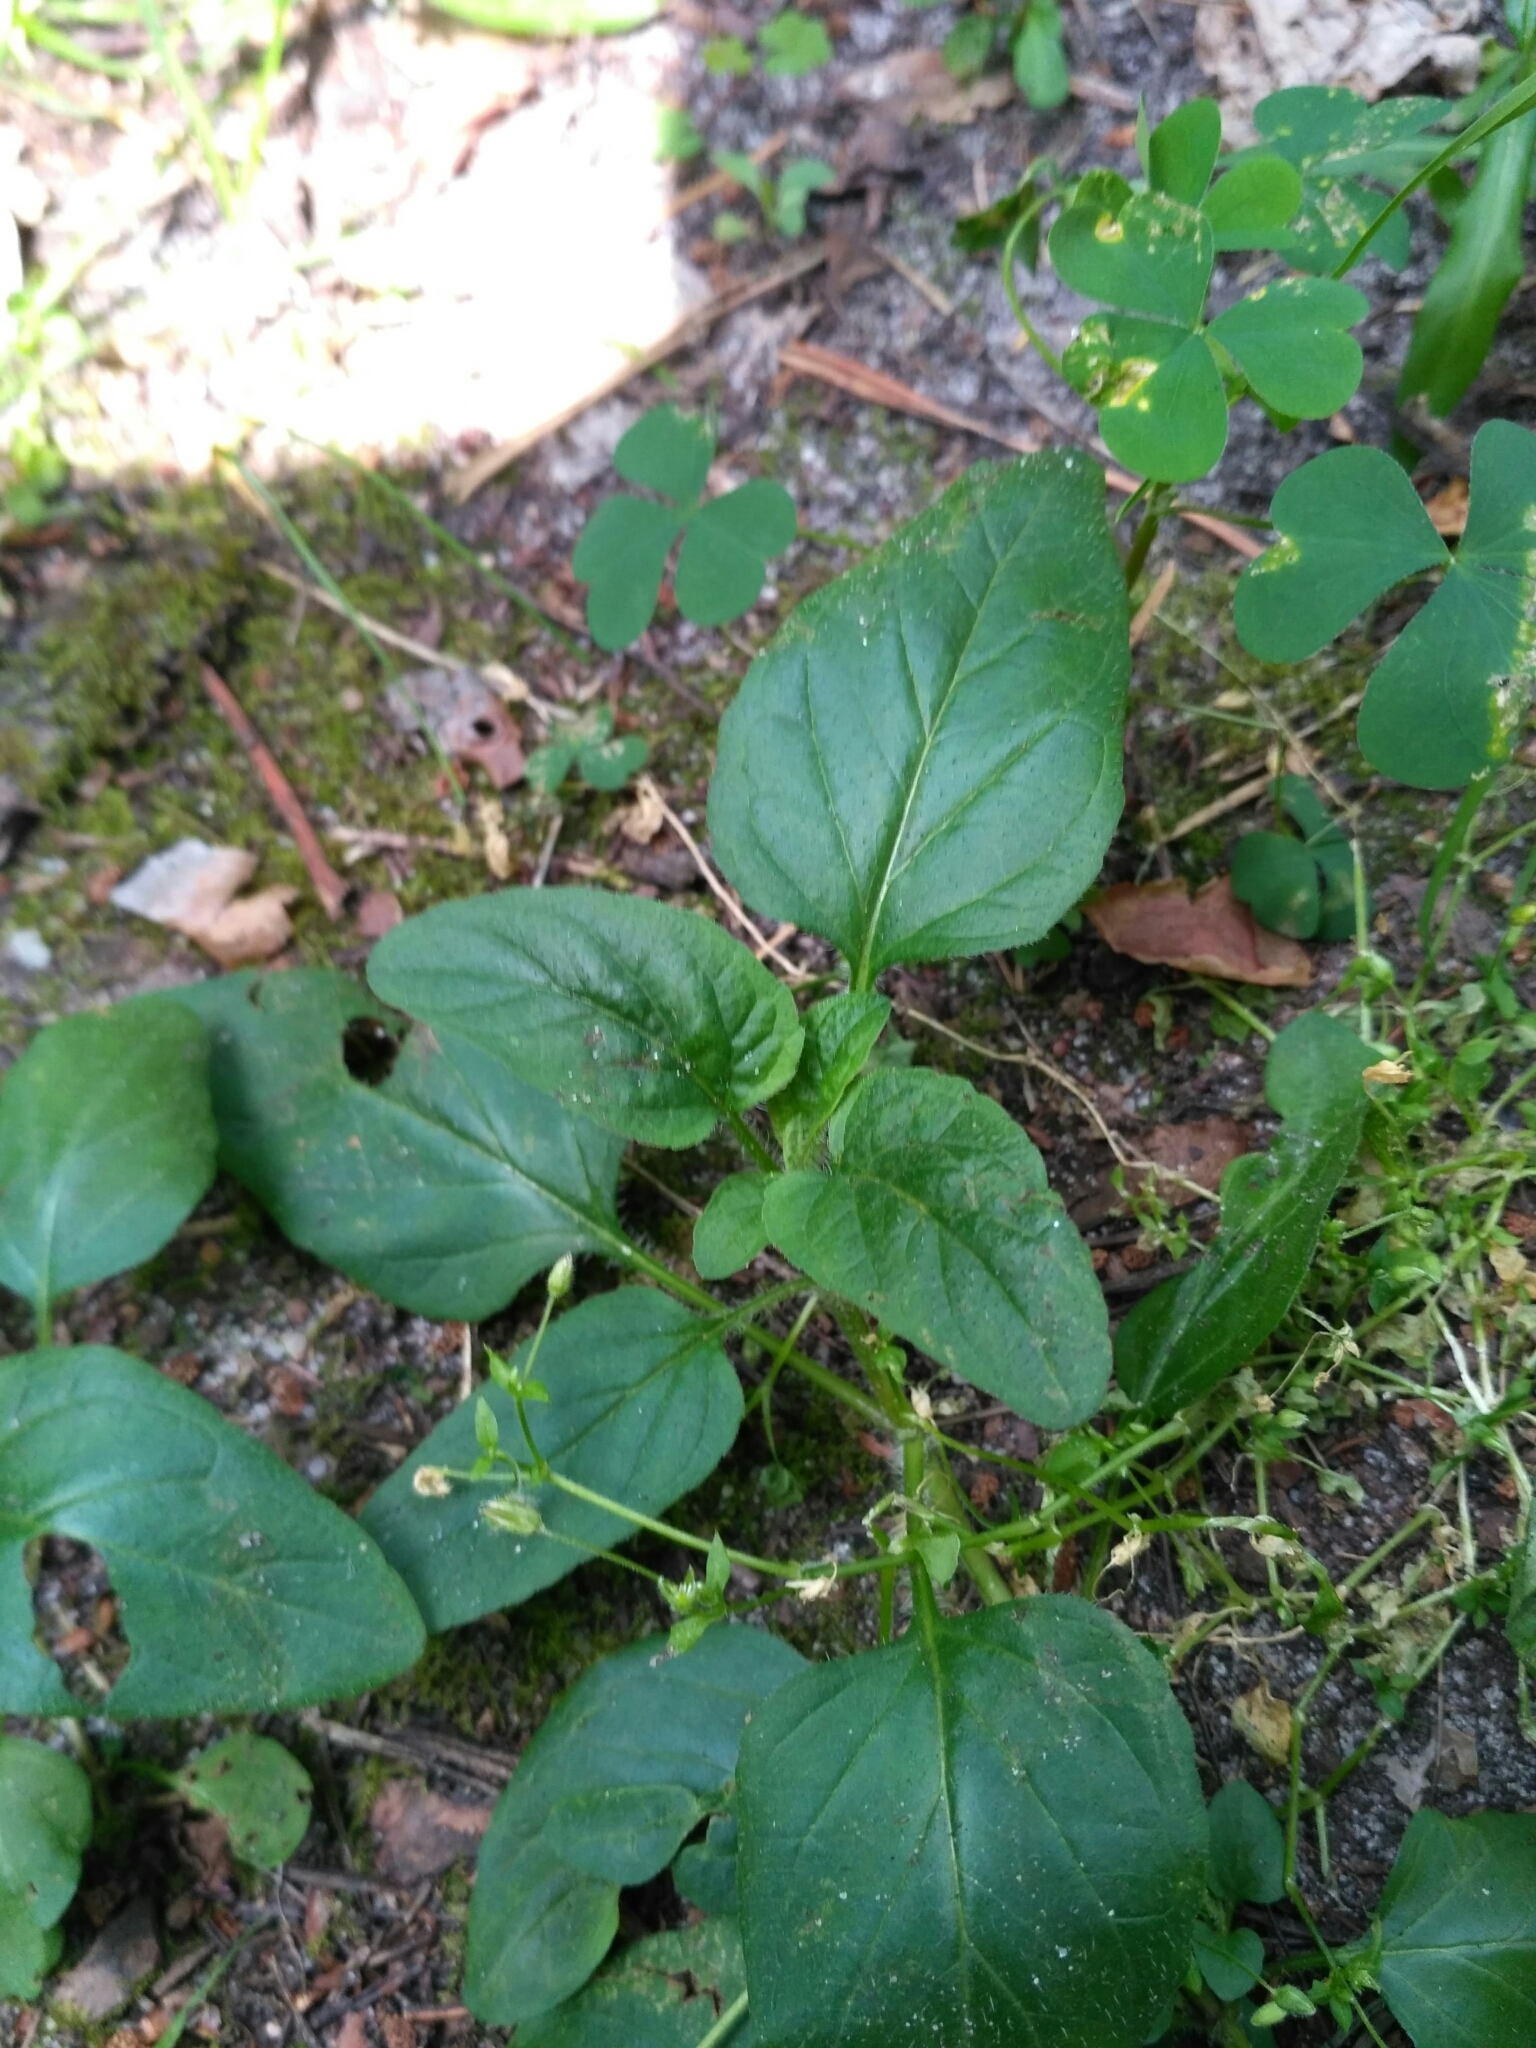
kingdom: Plantae
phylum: Tracheophyta
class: Magnoliopsida
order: Lamiales
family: Lamiaceae
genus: Prunella
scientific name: Prunella vulgaris
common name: Heal-all
